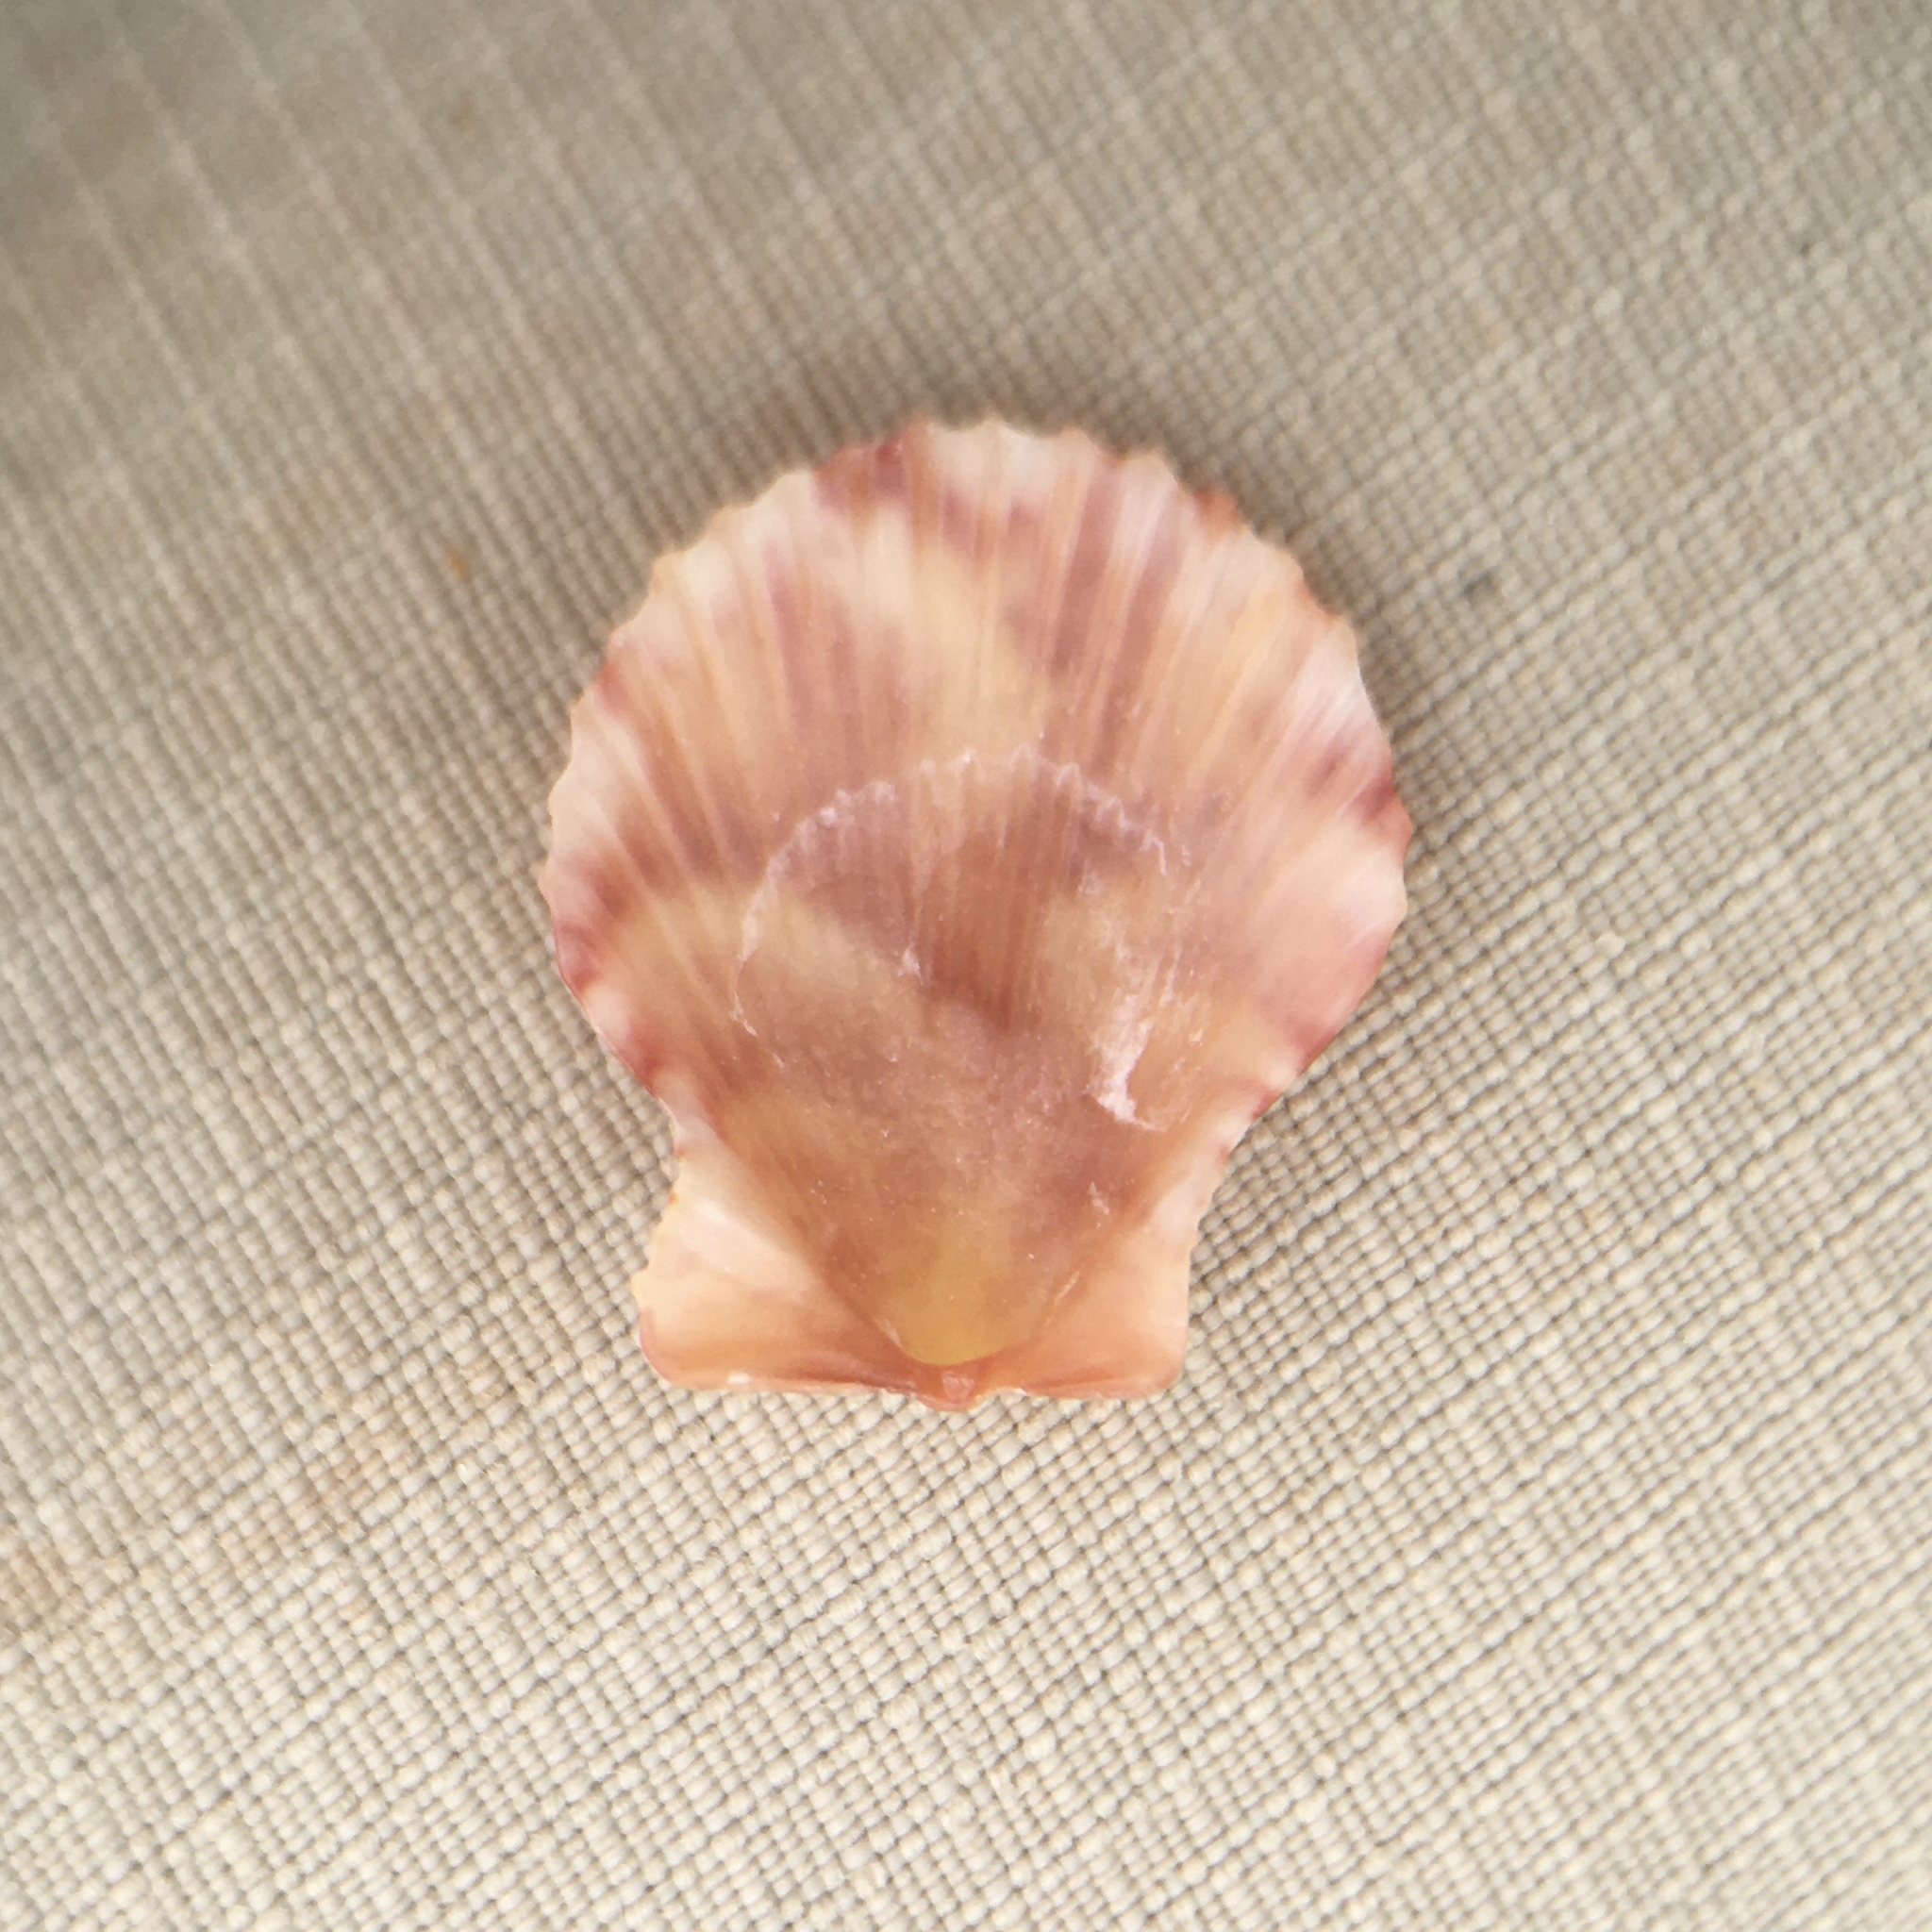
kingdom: Animalia
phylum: Mollusca
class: Bivalvia
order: Pectinida
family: Pectinidae
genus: Aequipecten
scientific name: Aequipecten opercularis
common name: Queen scallop
